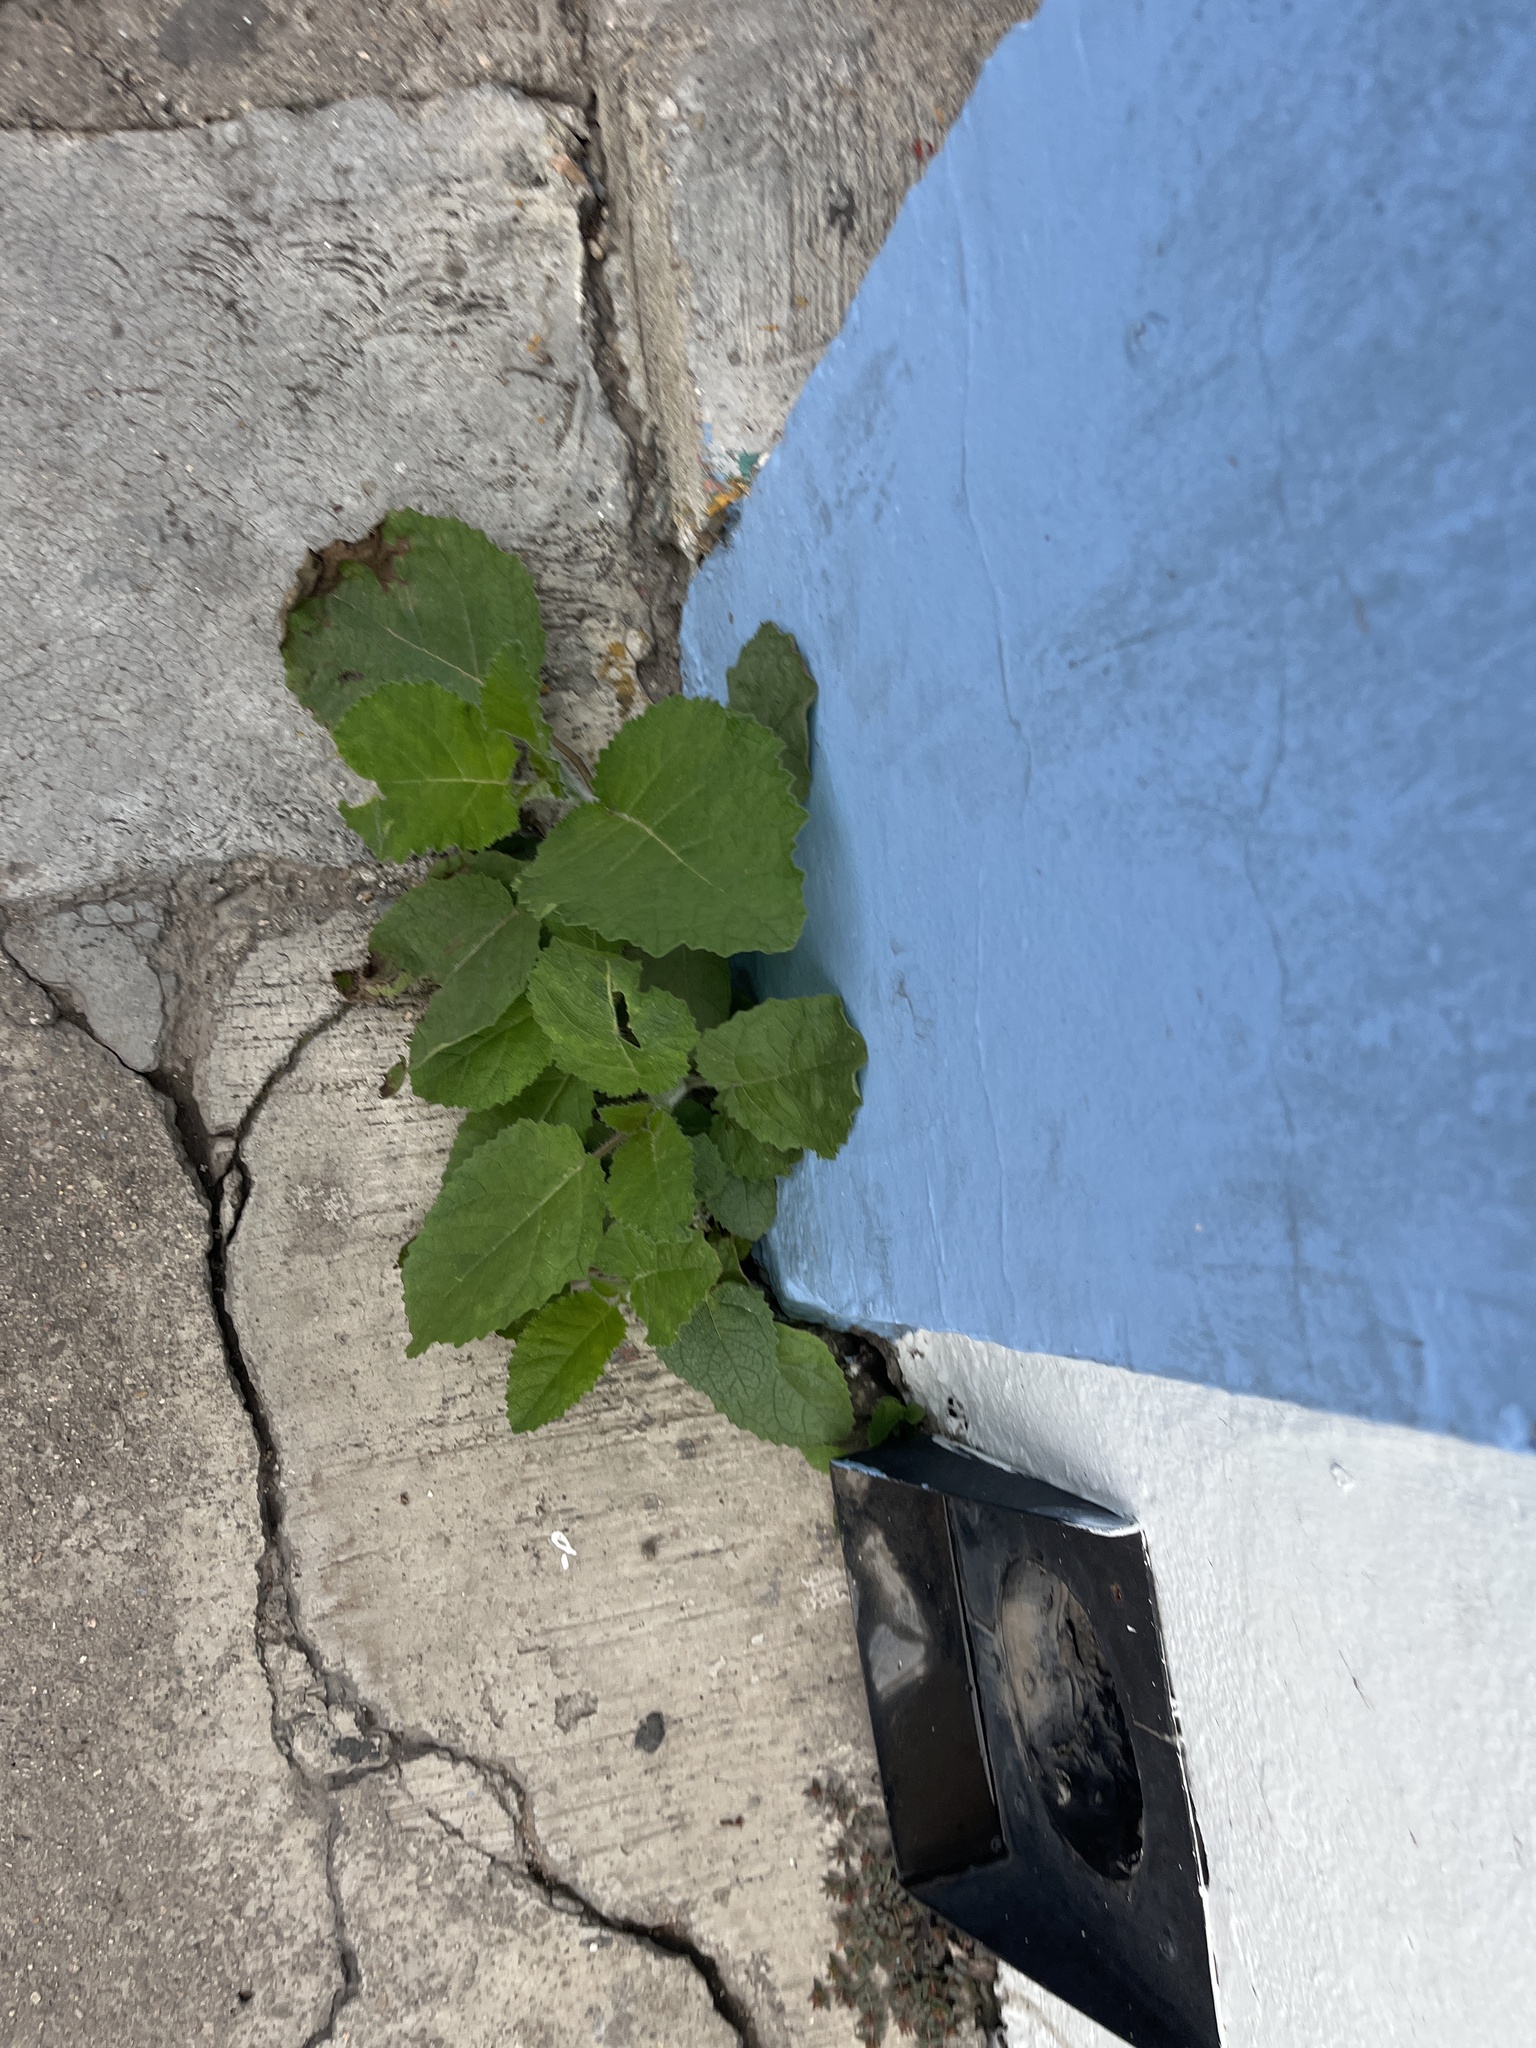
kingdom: Plantae
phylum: Tracheophyta
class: Magnoliopsida
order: Boraginales
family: Namaceae
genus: Wigandia
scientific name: Wigandia urens
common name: Caracus wigandia
